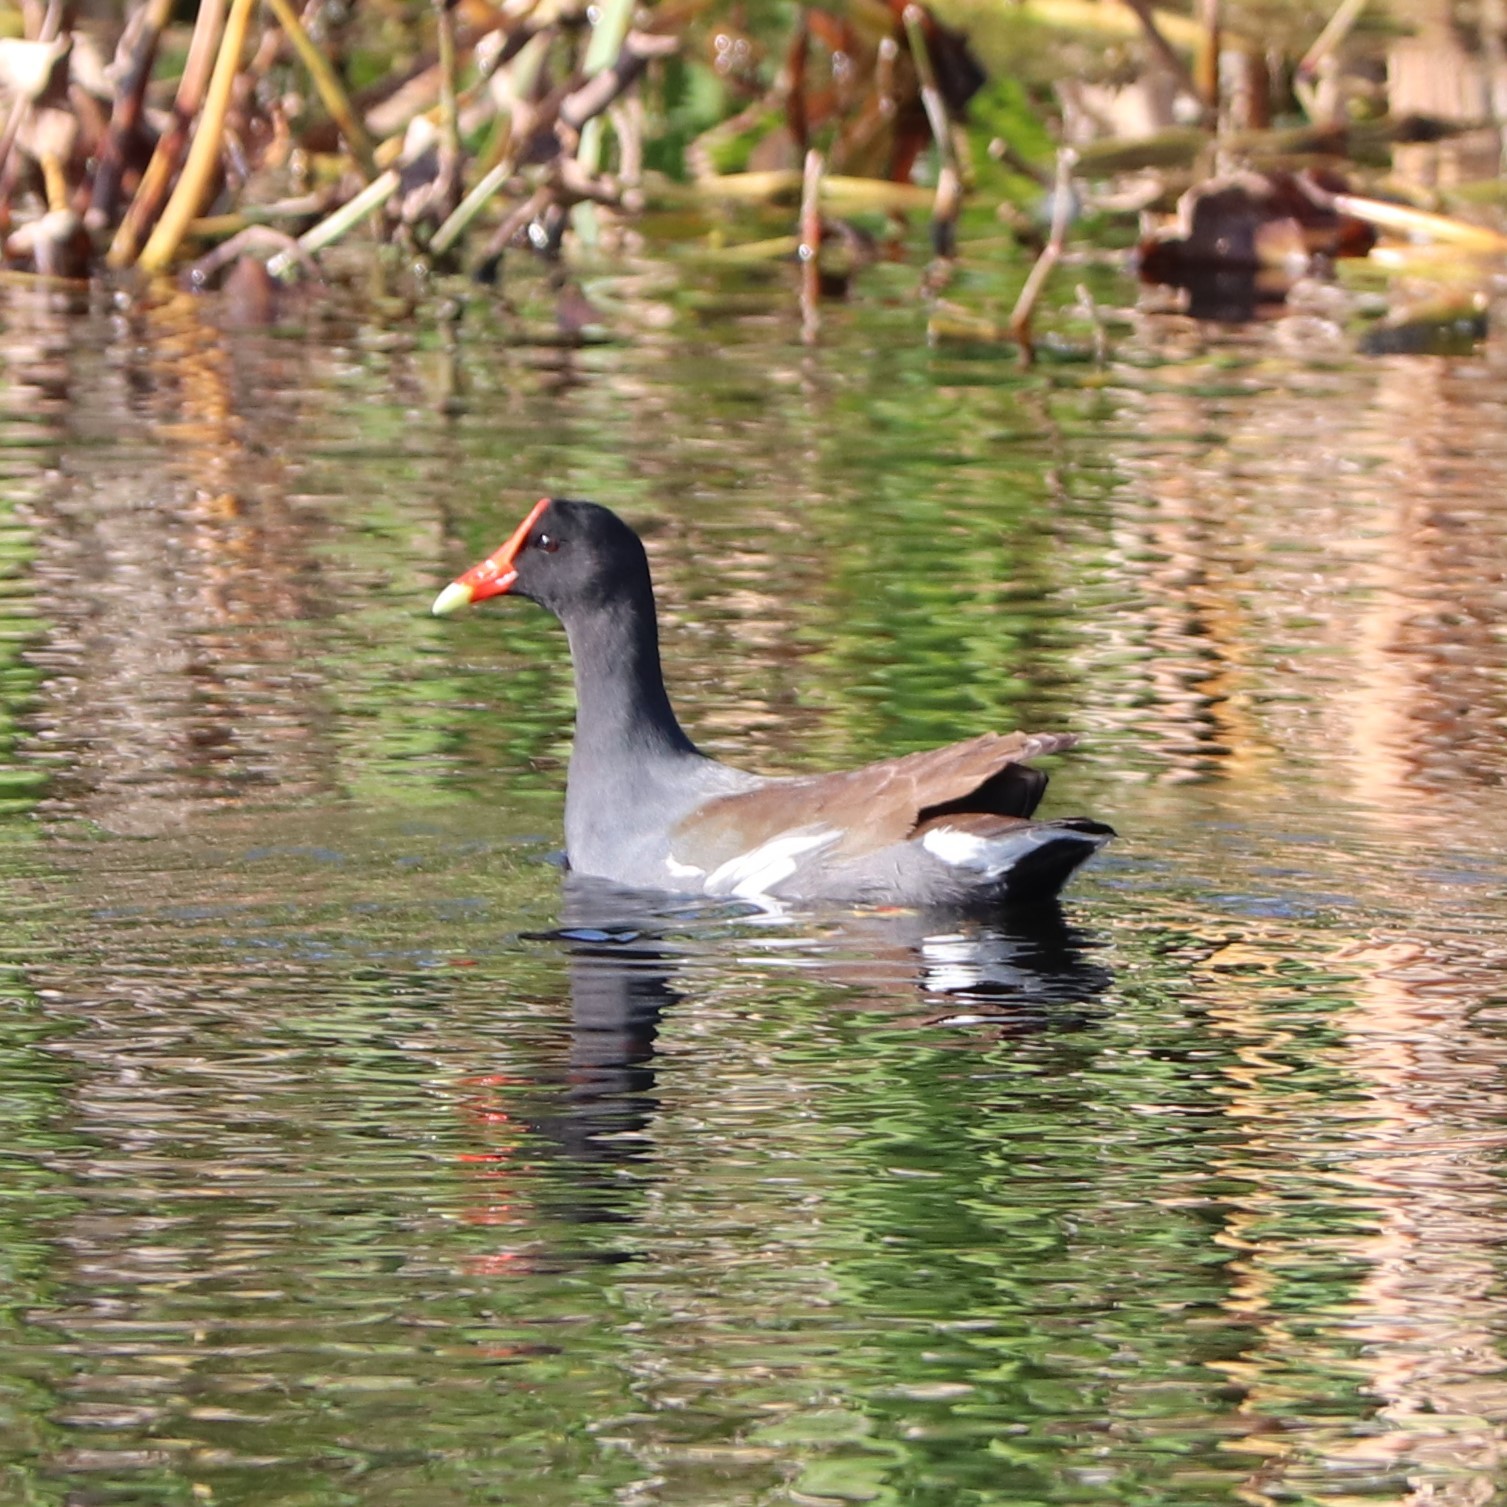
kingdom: Animalia
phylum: Chordata
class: Aves
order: Gruiformes
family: Rallidae
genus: Gallinula
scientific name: Gallinula chloropus
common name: Common moorhen
